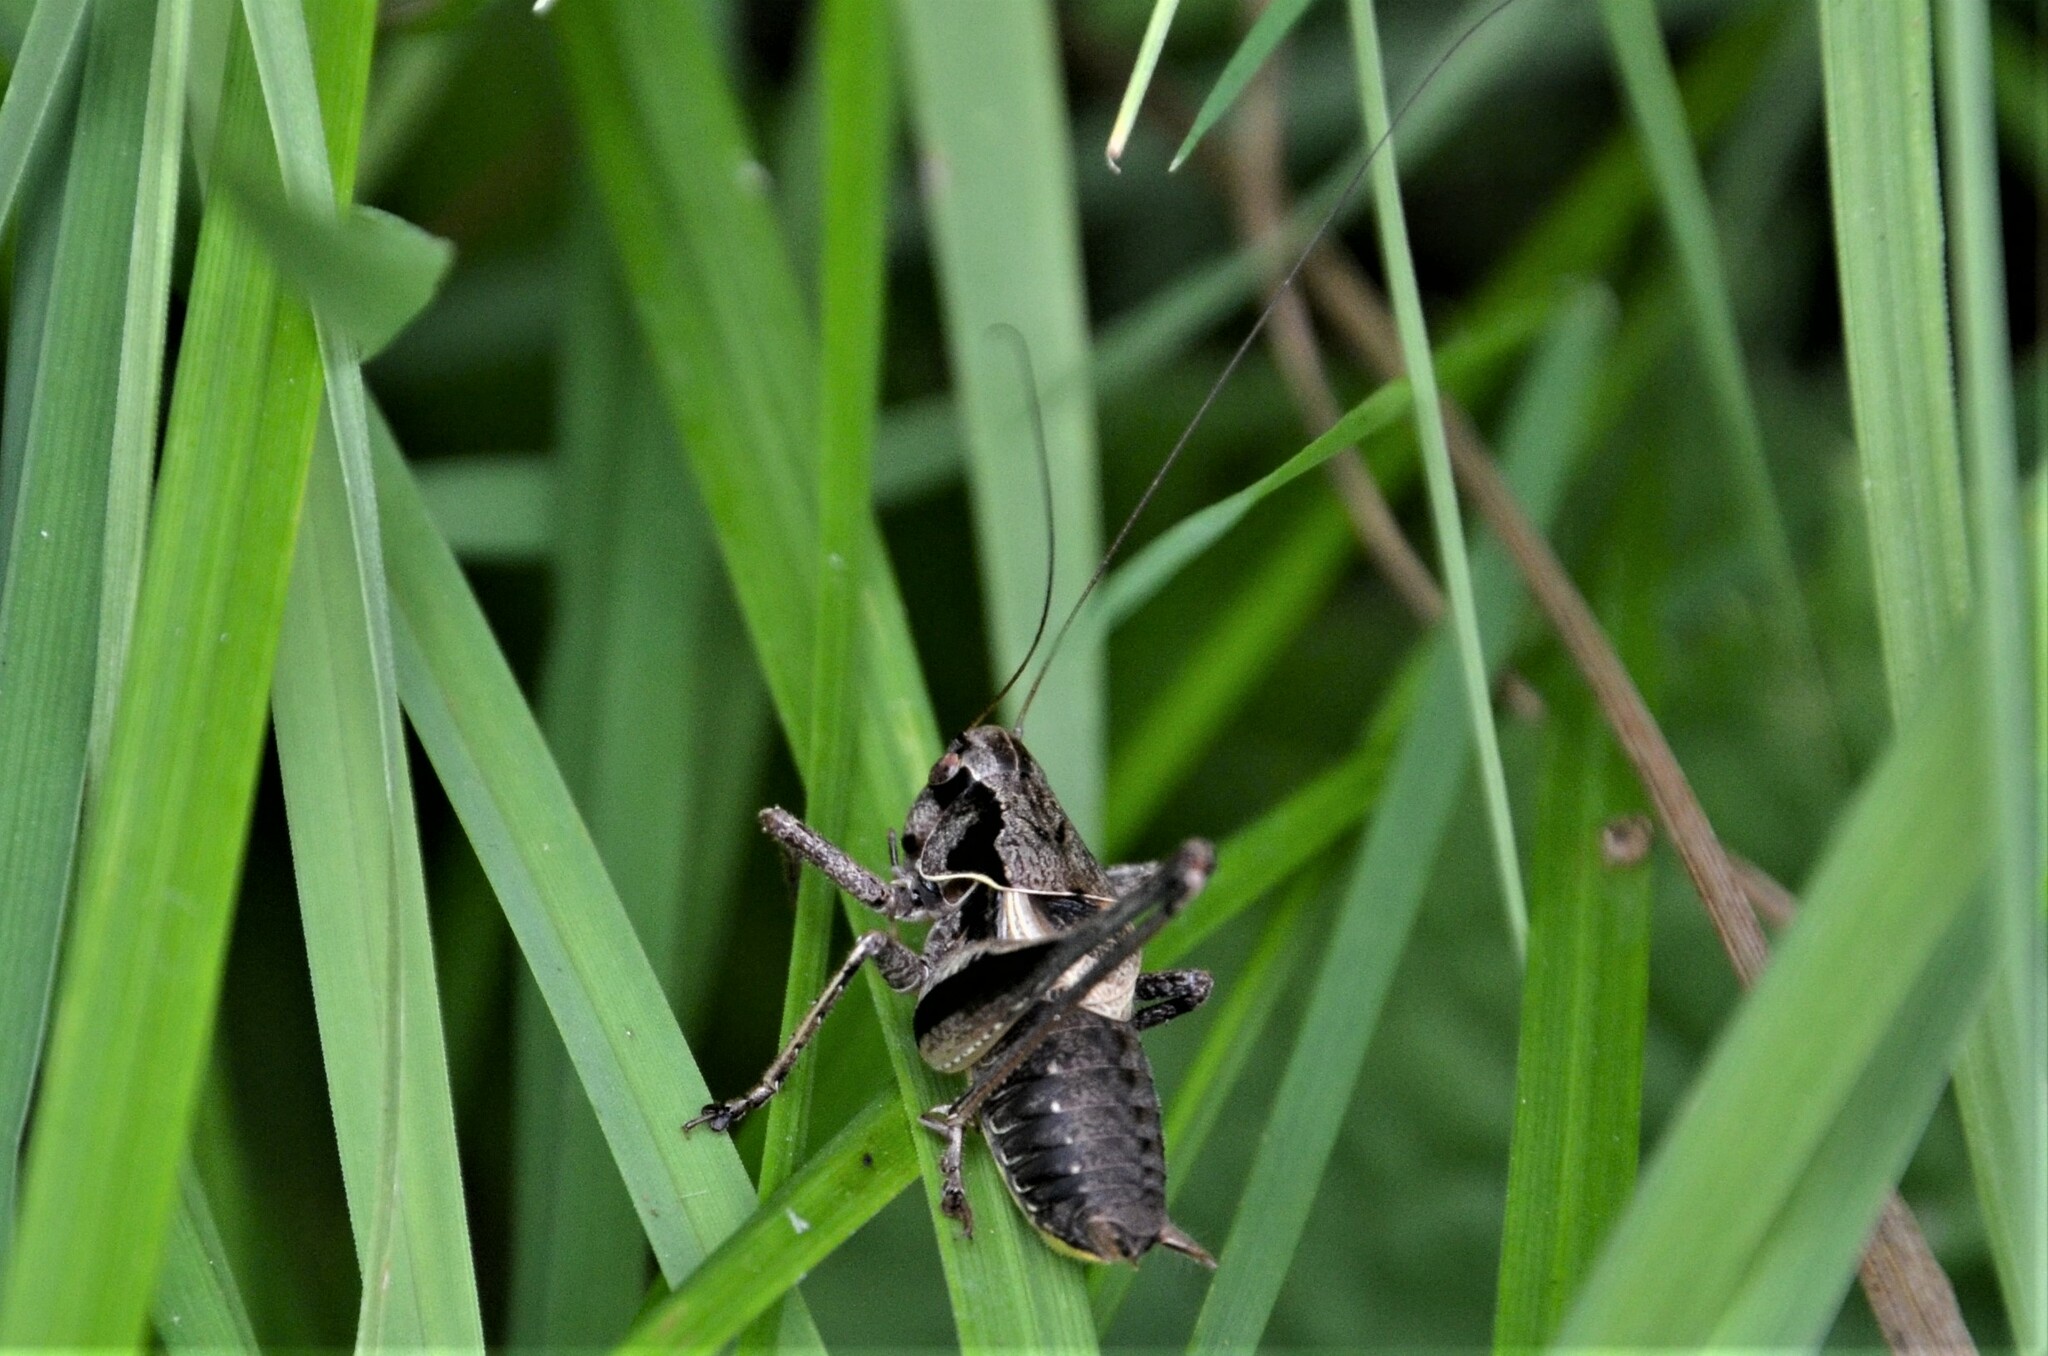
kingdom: Animalia
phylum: Arthropoda
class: Insecta
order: Orthoptera
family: Tettigoniidae
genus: Pholidoptera
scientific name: Pholidoptera griseoaptera
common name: Dark bush-cricket
